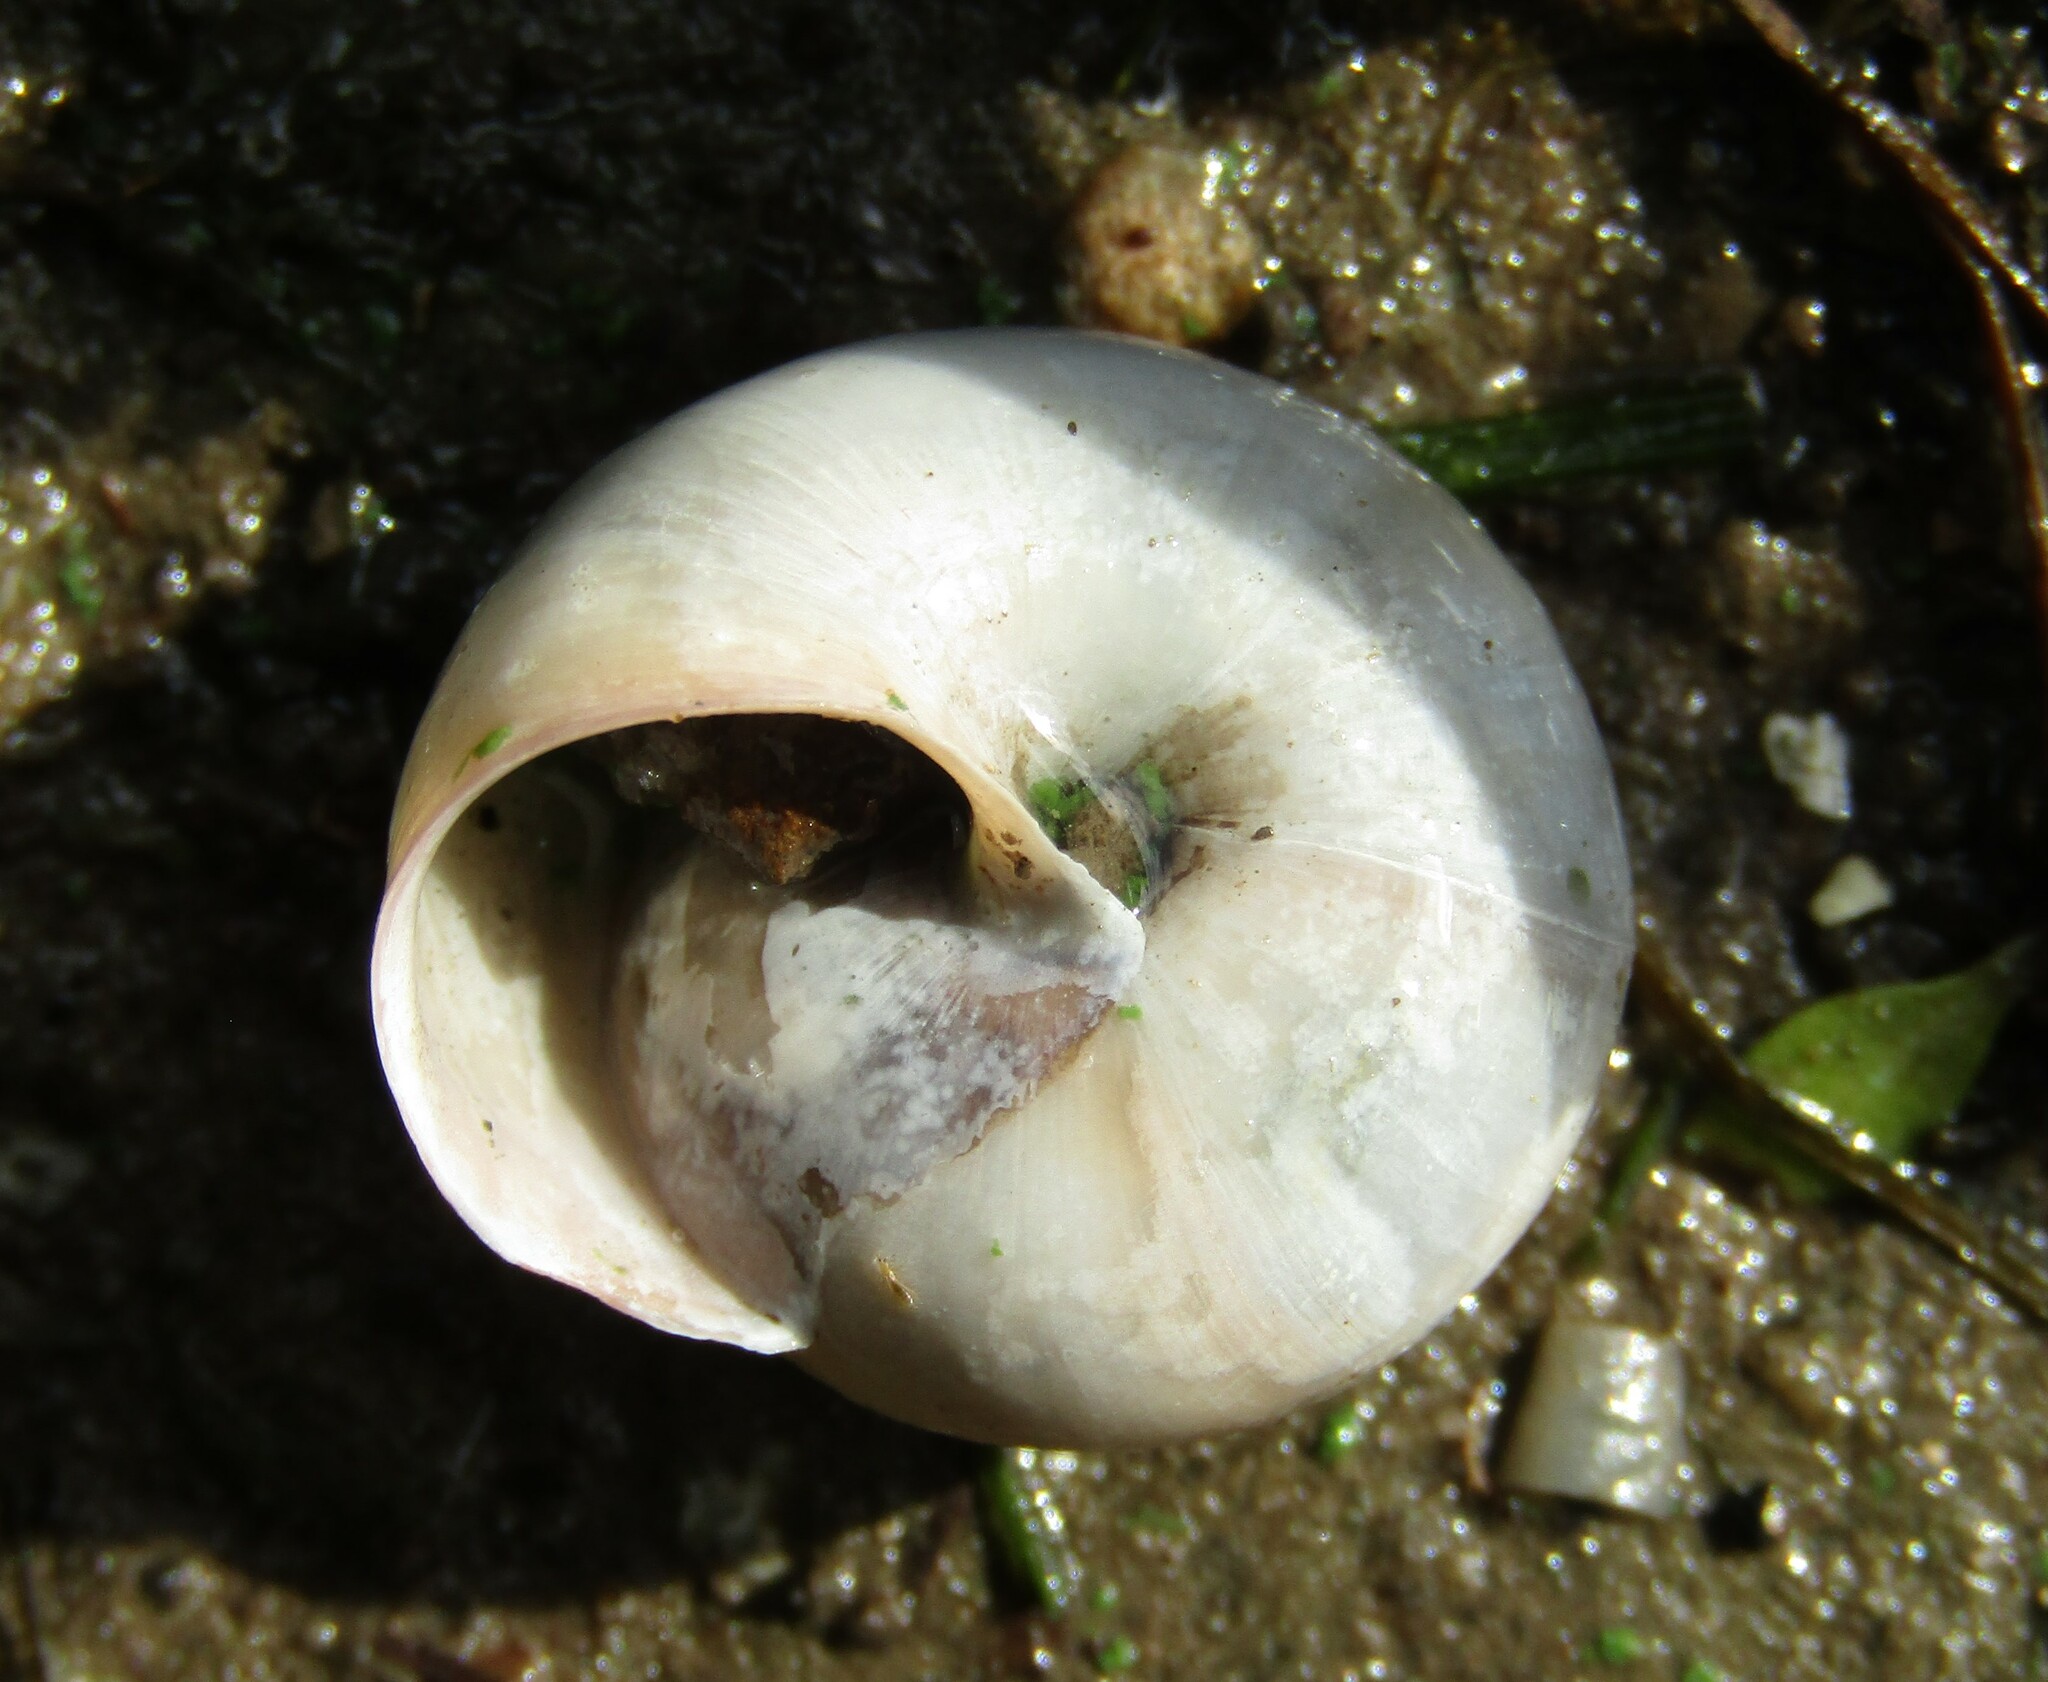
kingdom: Animalia
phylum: Mollusca
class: Gastropoda
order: Stylommatophora
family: Camaenidae
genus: Fruticicola
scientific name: Fruticicola fruticum
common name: Bush snail
